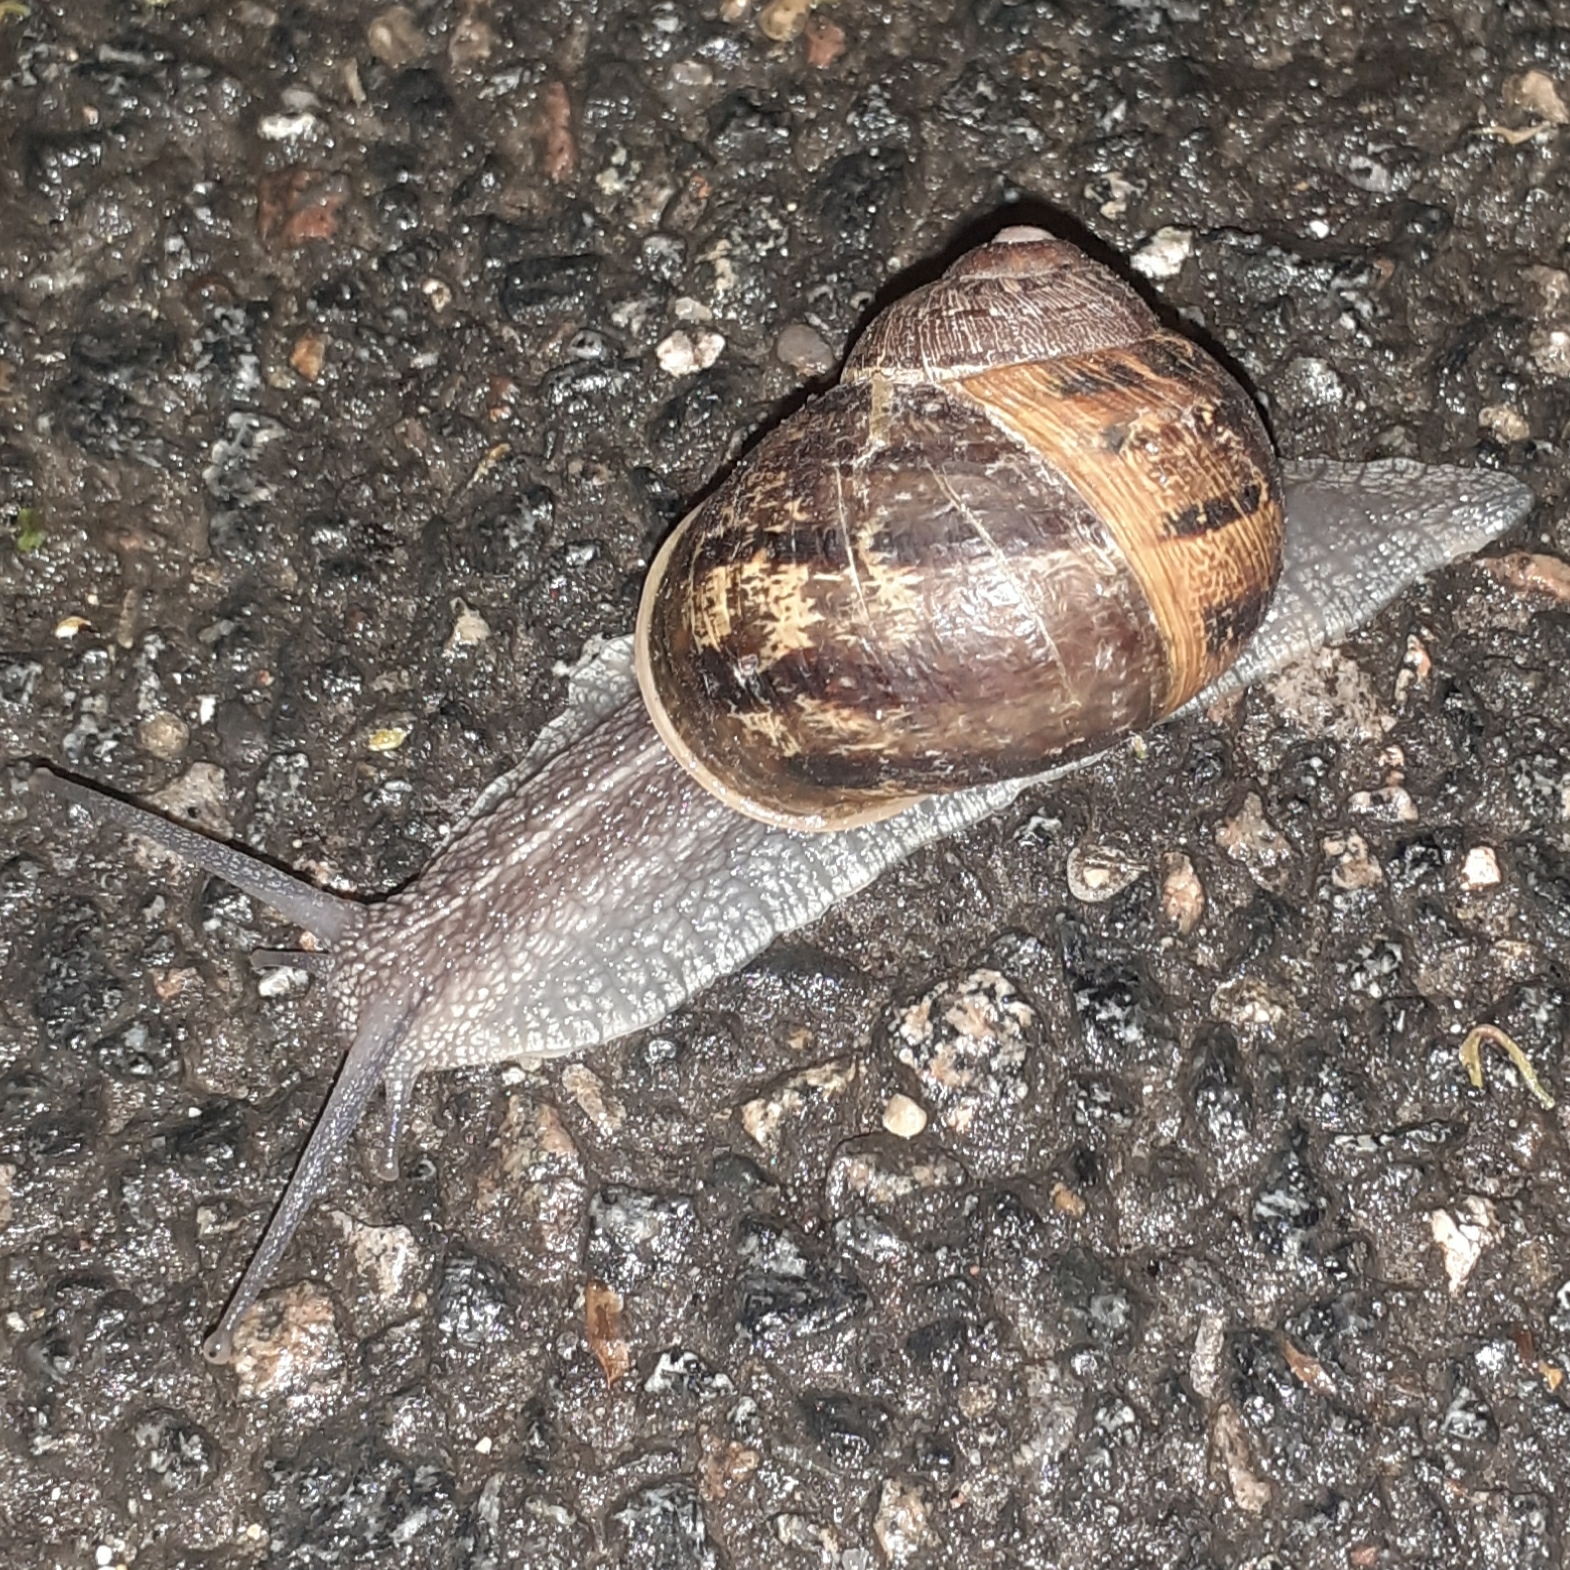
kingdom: Animalia
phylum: Mollusca
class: Gastropoda
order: Stylommatophora
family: Helicidae
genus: Cornu
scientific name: Cornu aspersum
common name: Brown garden snail
